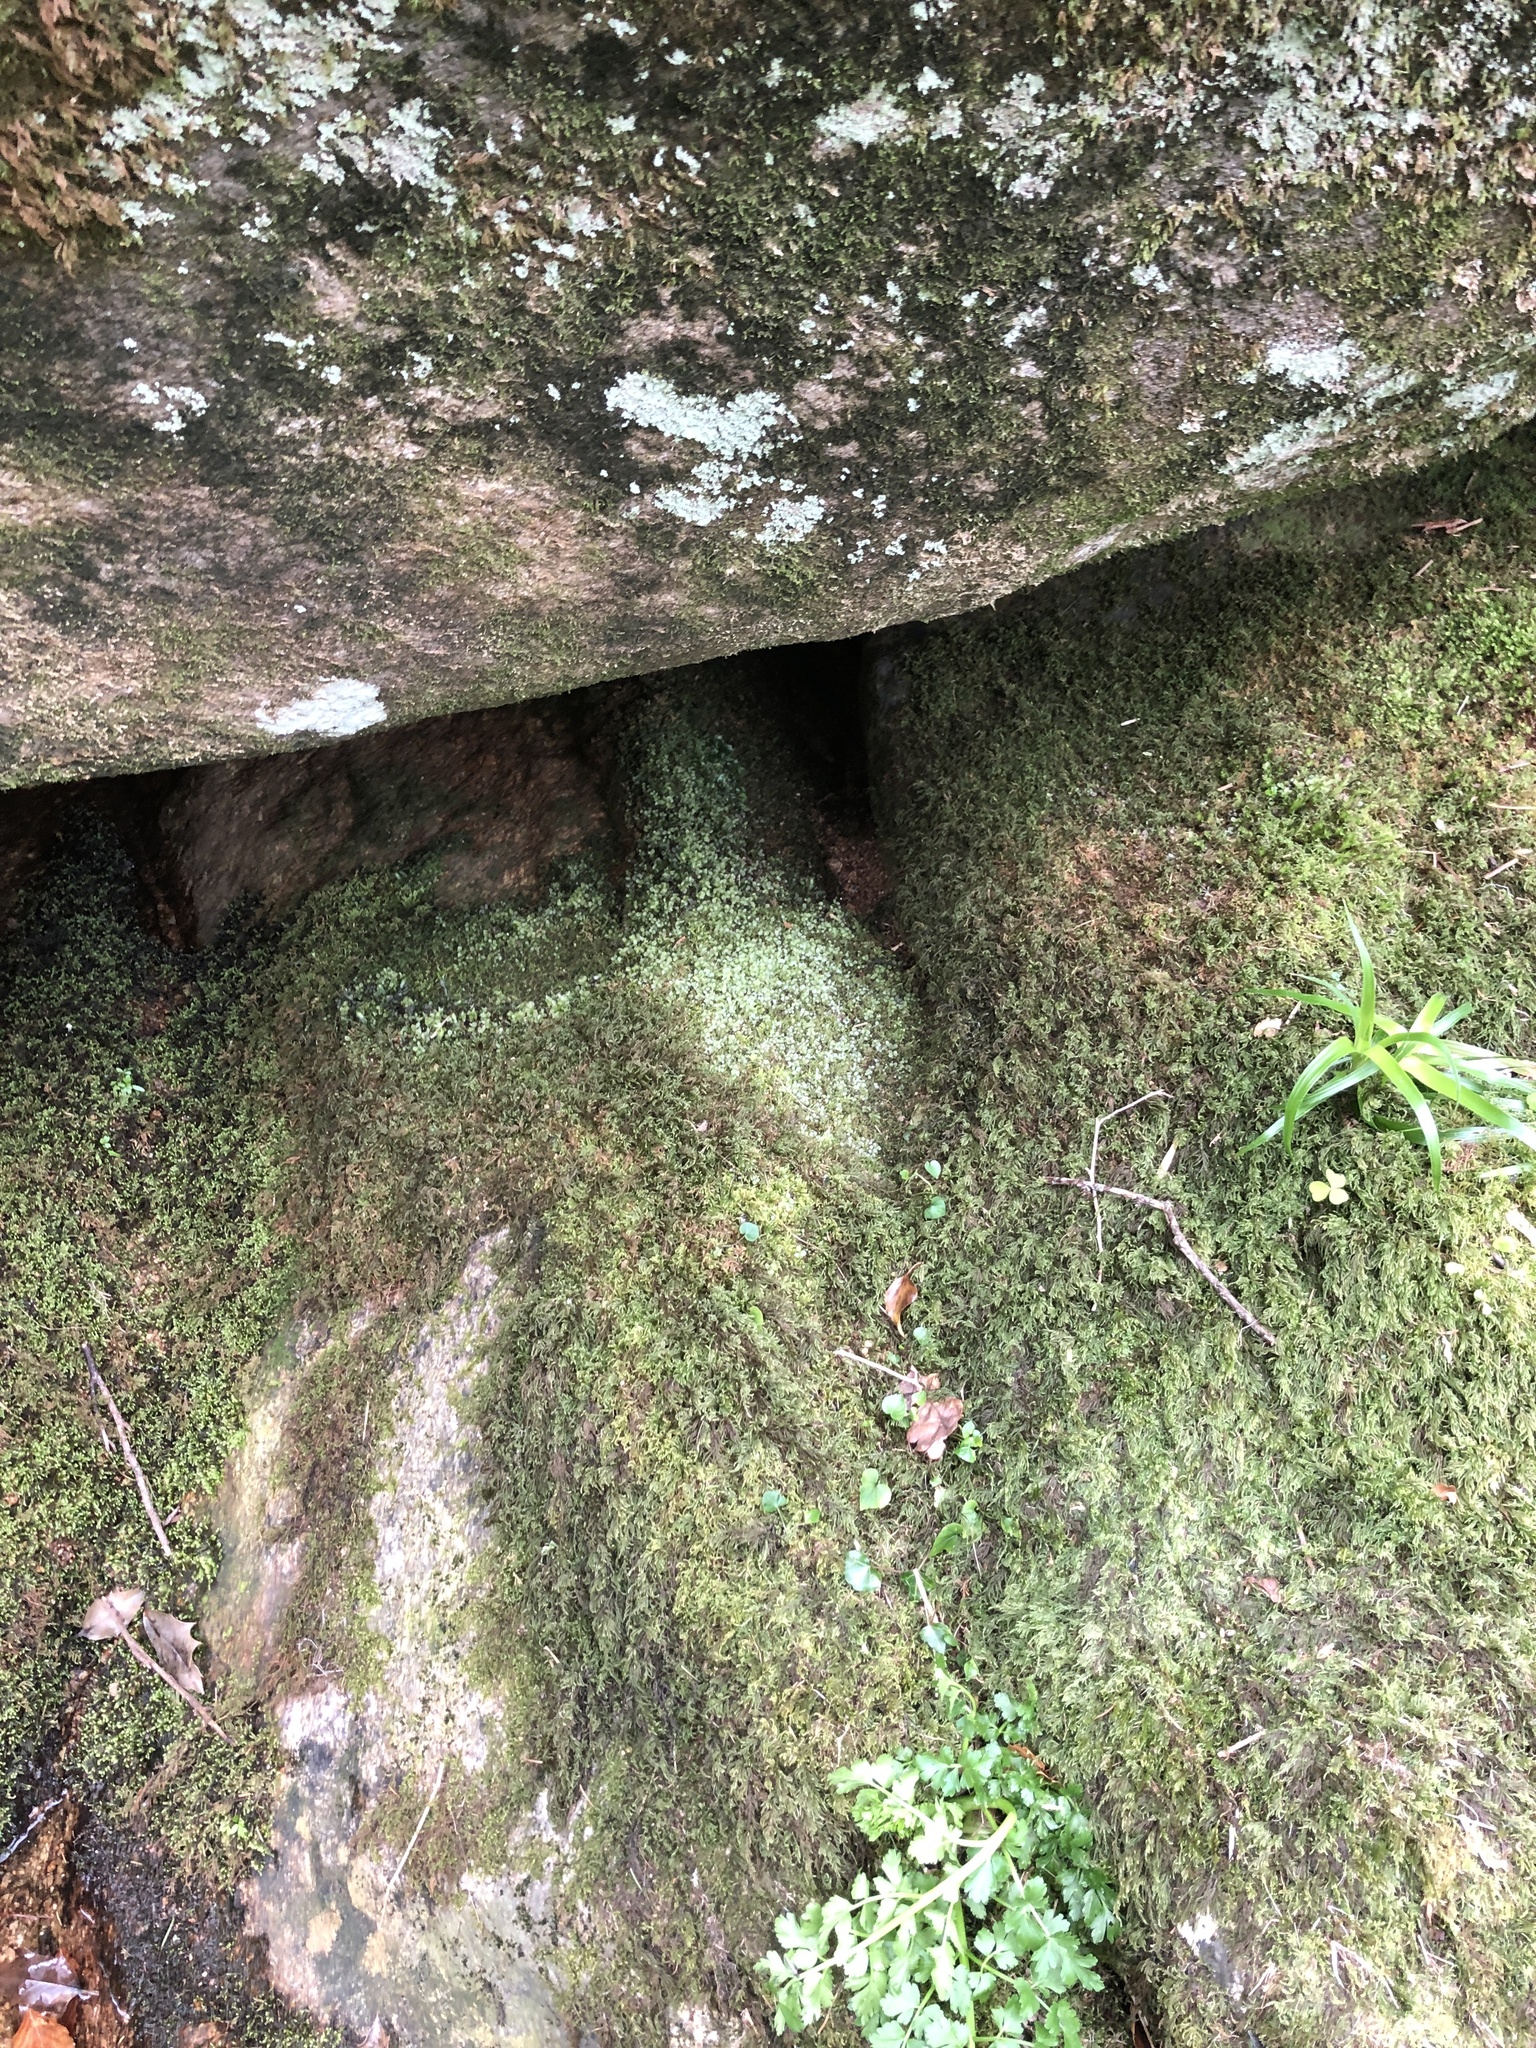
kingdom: Plantae
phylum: Bryophyta
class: Bryopsida
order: Bryales
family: Mniaceae
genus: Rhizomnium
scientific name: Rhizomnium punctatum
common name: Dotted leafy moss
